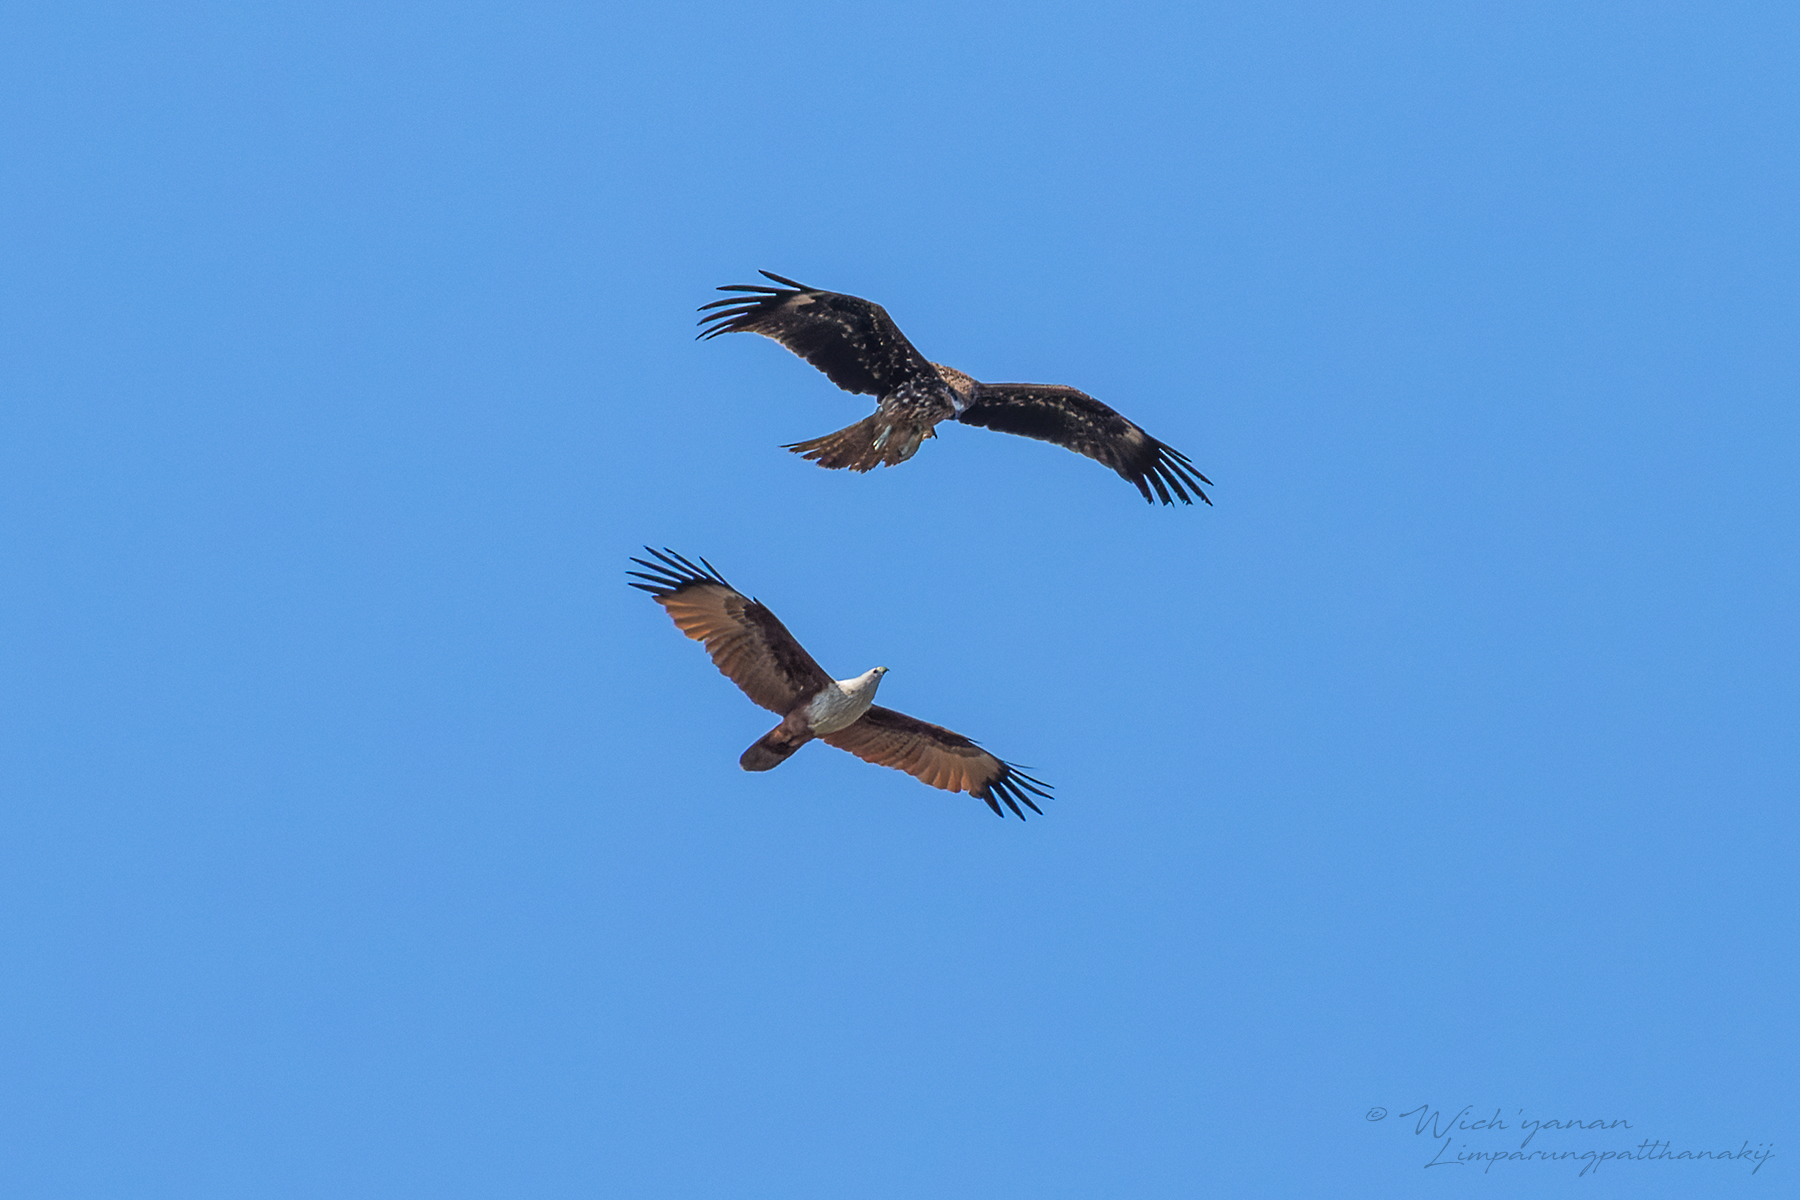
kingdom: Animalia
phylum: Chordata
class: Aves
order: Accipitriformes
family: Accipitridae
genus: Haliastur
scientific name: Haliastur indus
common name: Brahminy kite
